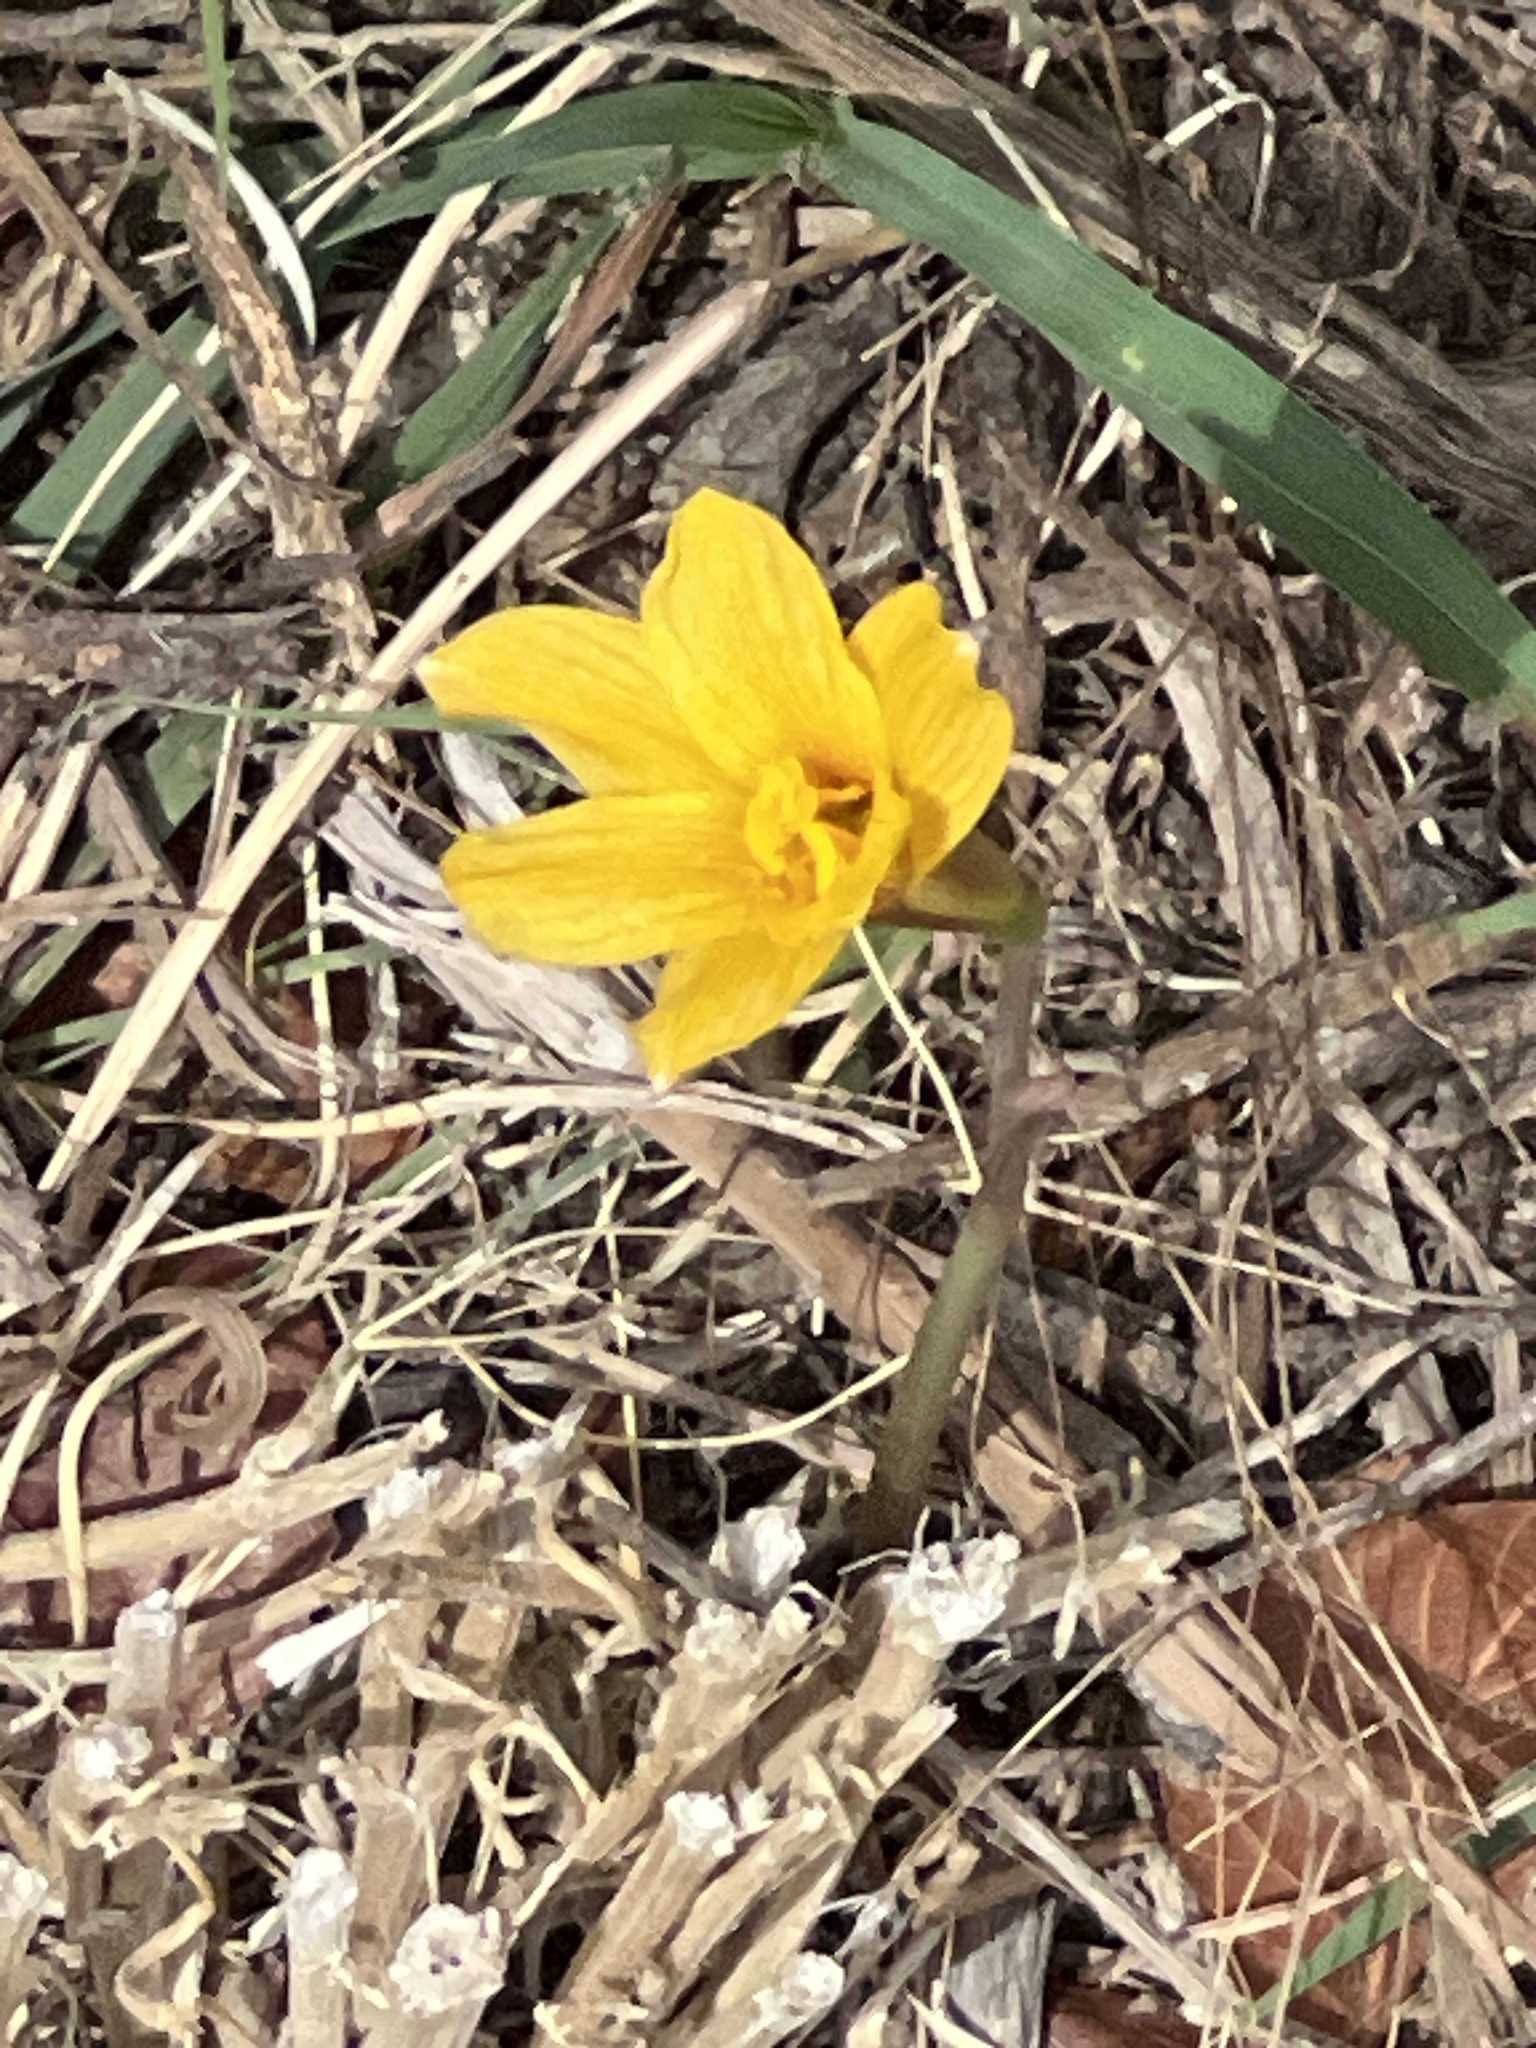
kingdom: Plantae
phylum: Tracheophyta
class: Liliopsida
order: Asparagales
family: Amaryllidaceae
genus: Zephyranthes
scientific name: Zephyranthes tubispatha
